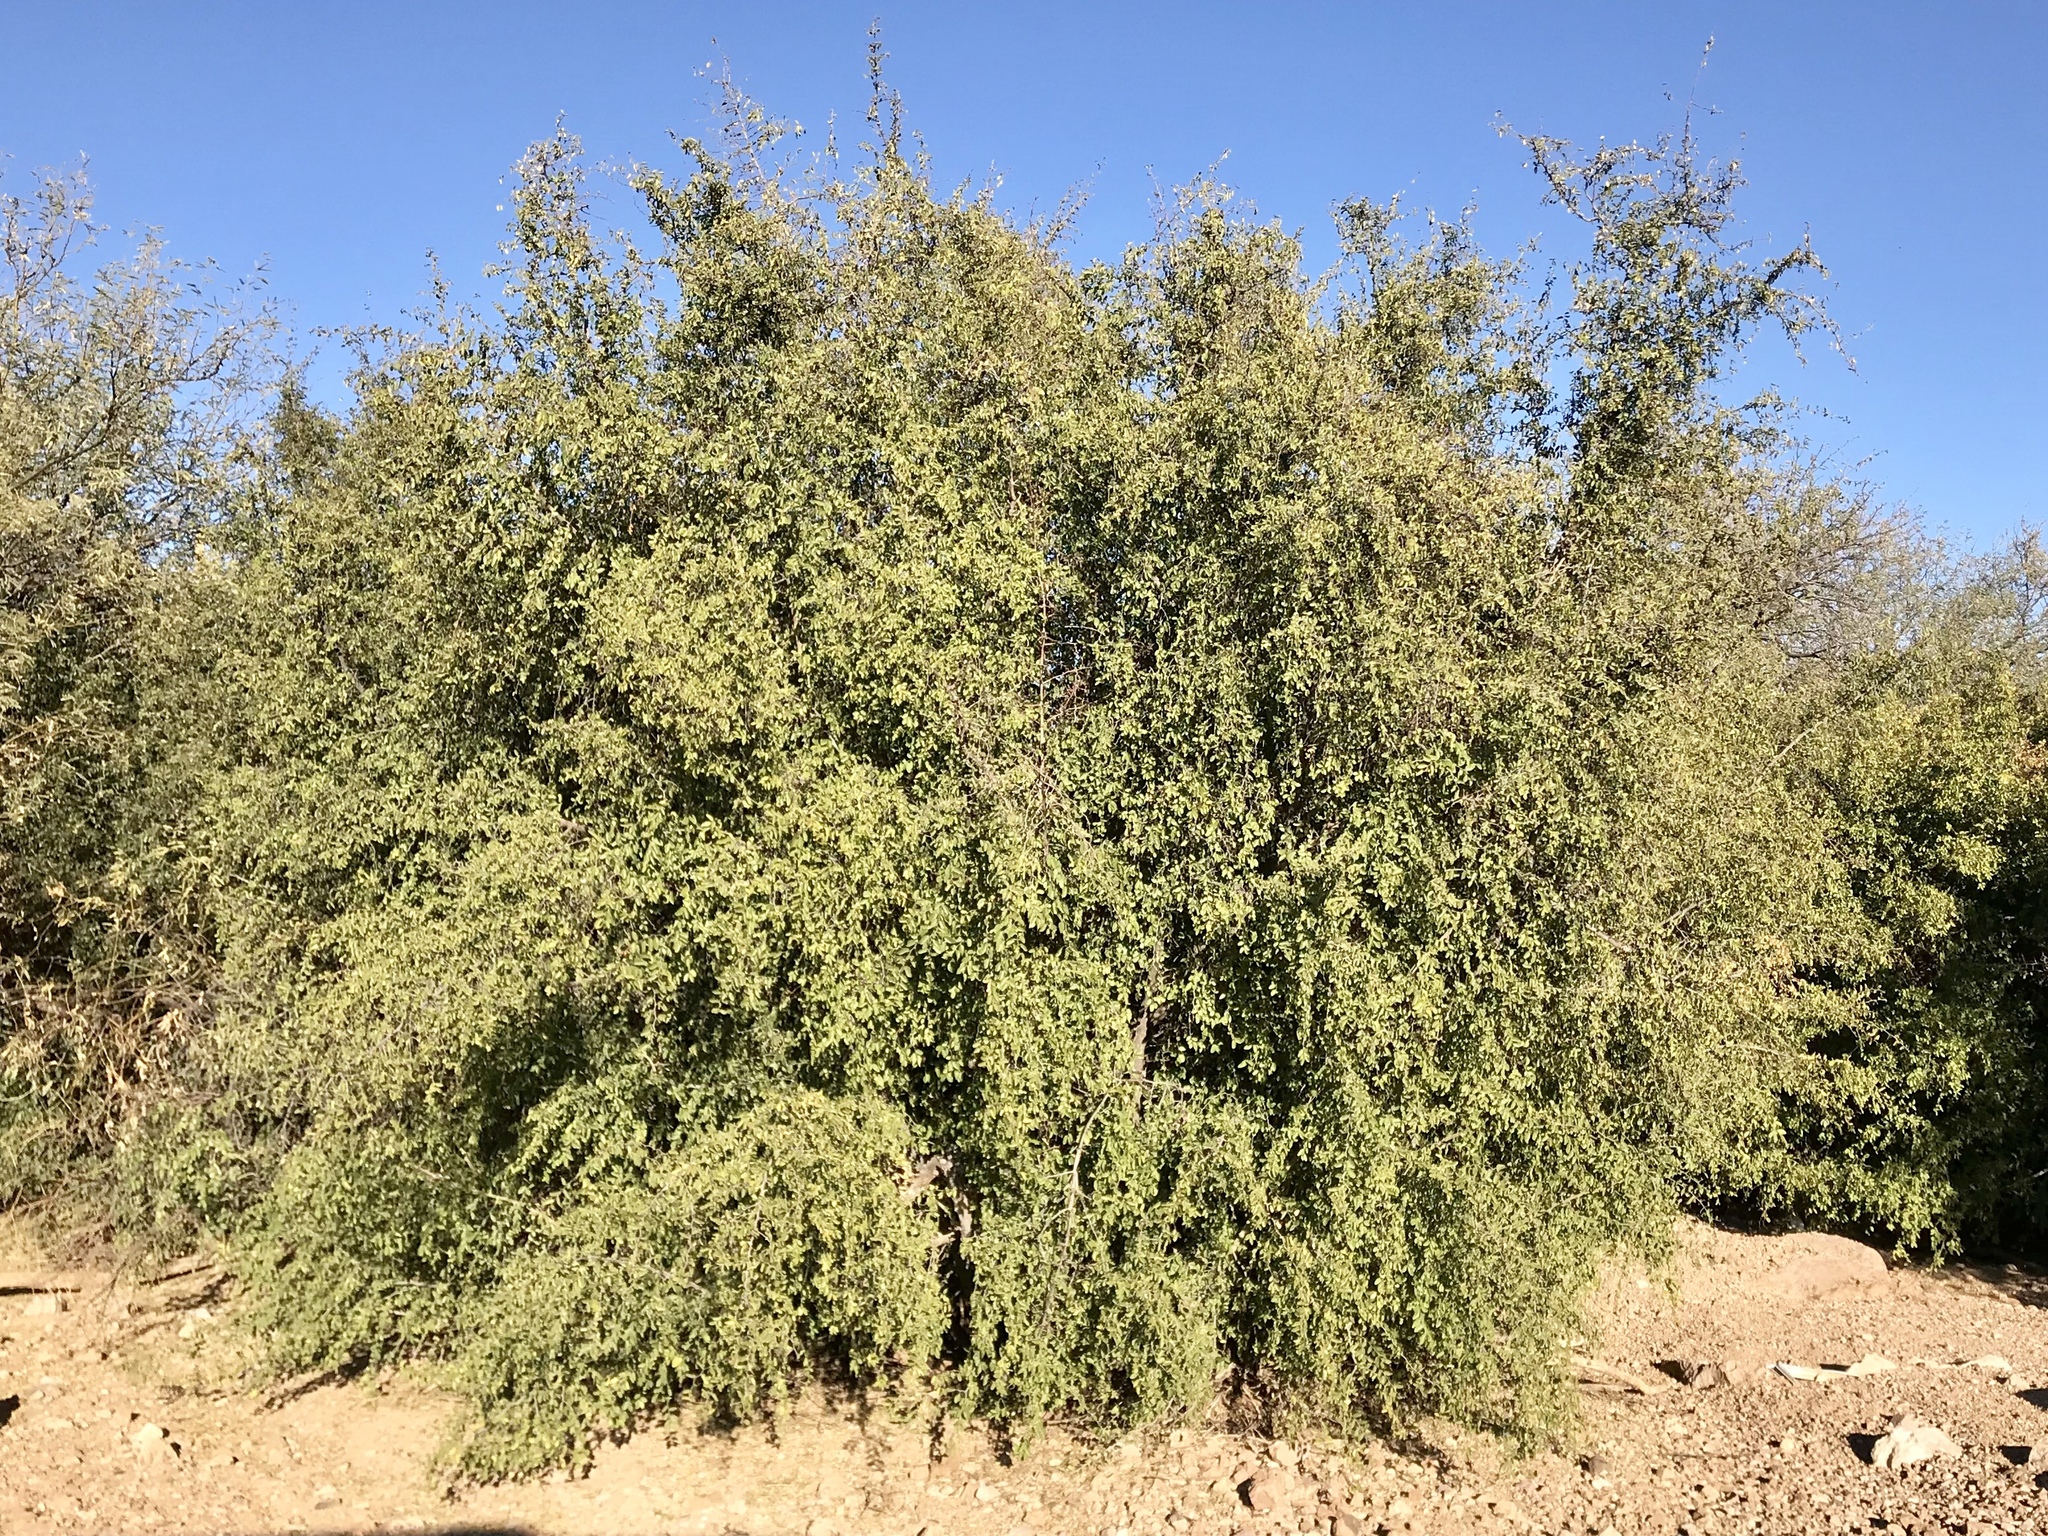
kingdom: Plantae
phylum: Tracheophyta
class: Magnoliopsida
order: Rosales
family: Cannabaceae
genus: Celtis
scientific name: Celtis pallida
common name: Desert hackberry
